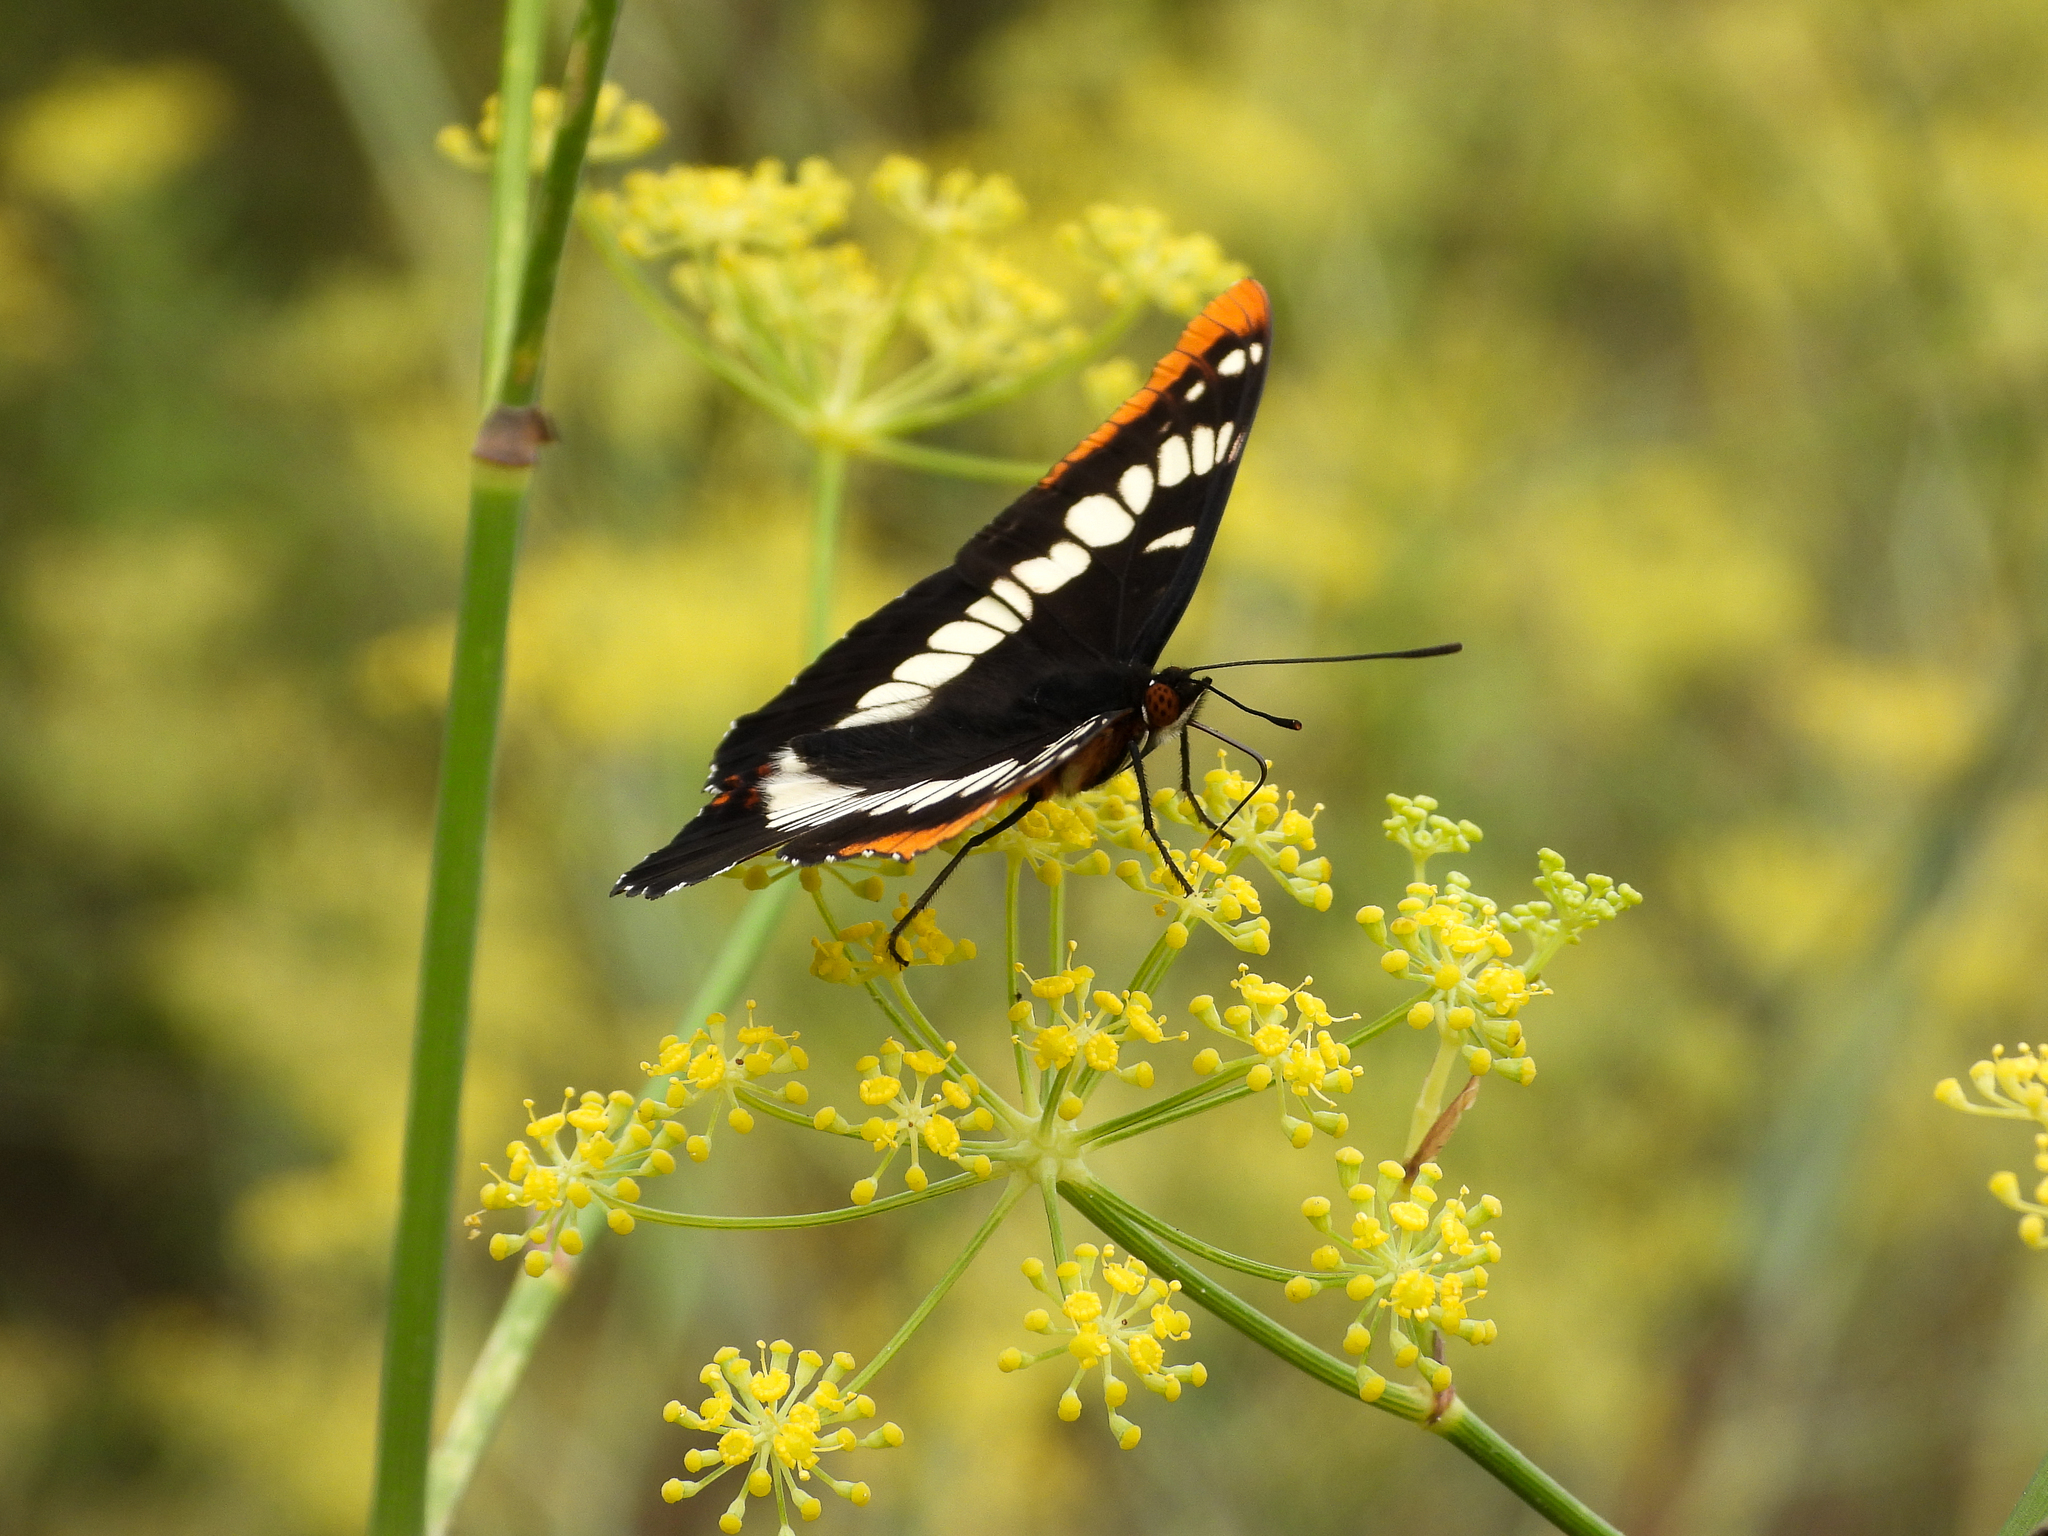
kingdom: Animalia
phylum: Arthropoda
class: Insecta
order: Lepidoptera
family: Nymphalidae
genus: Limenitis
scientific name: Limenitis lorquini
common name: Lorquin's admiral
